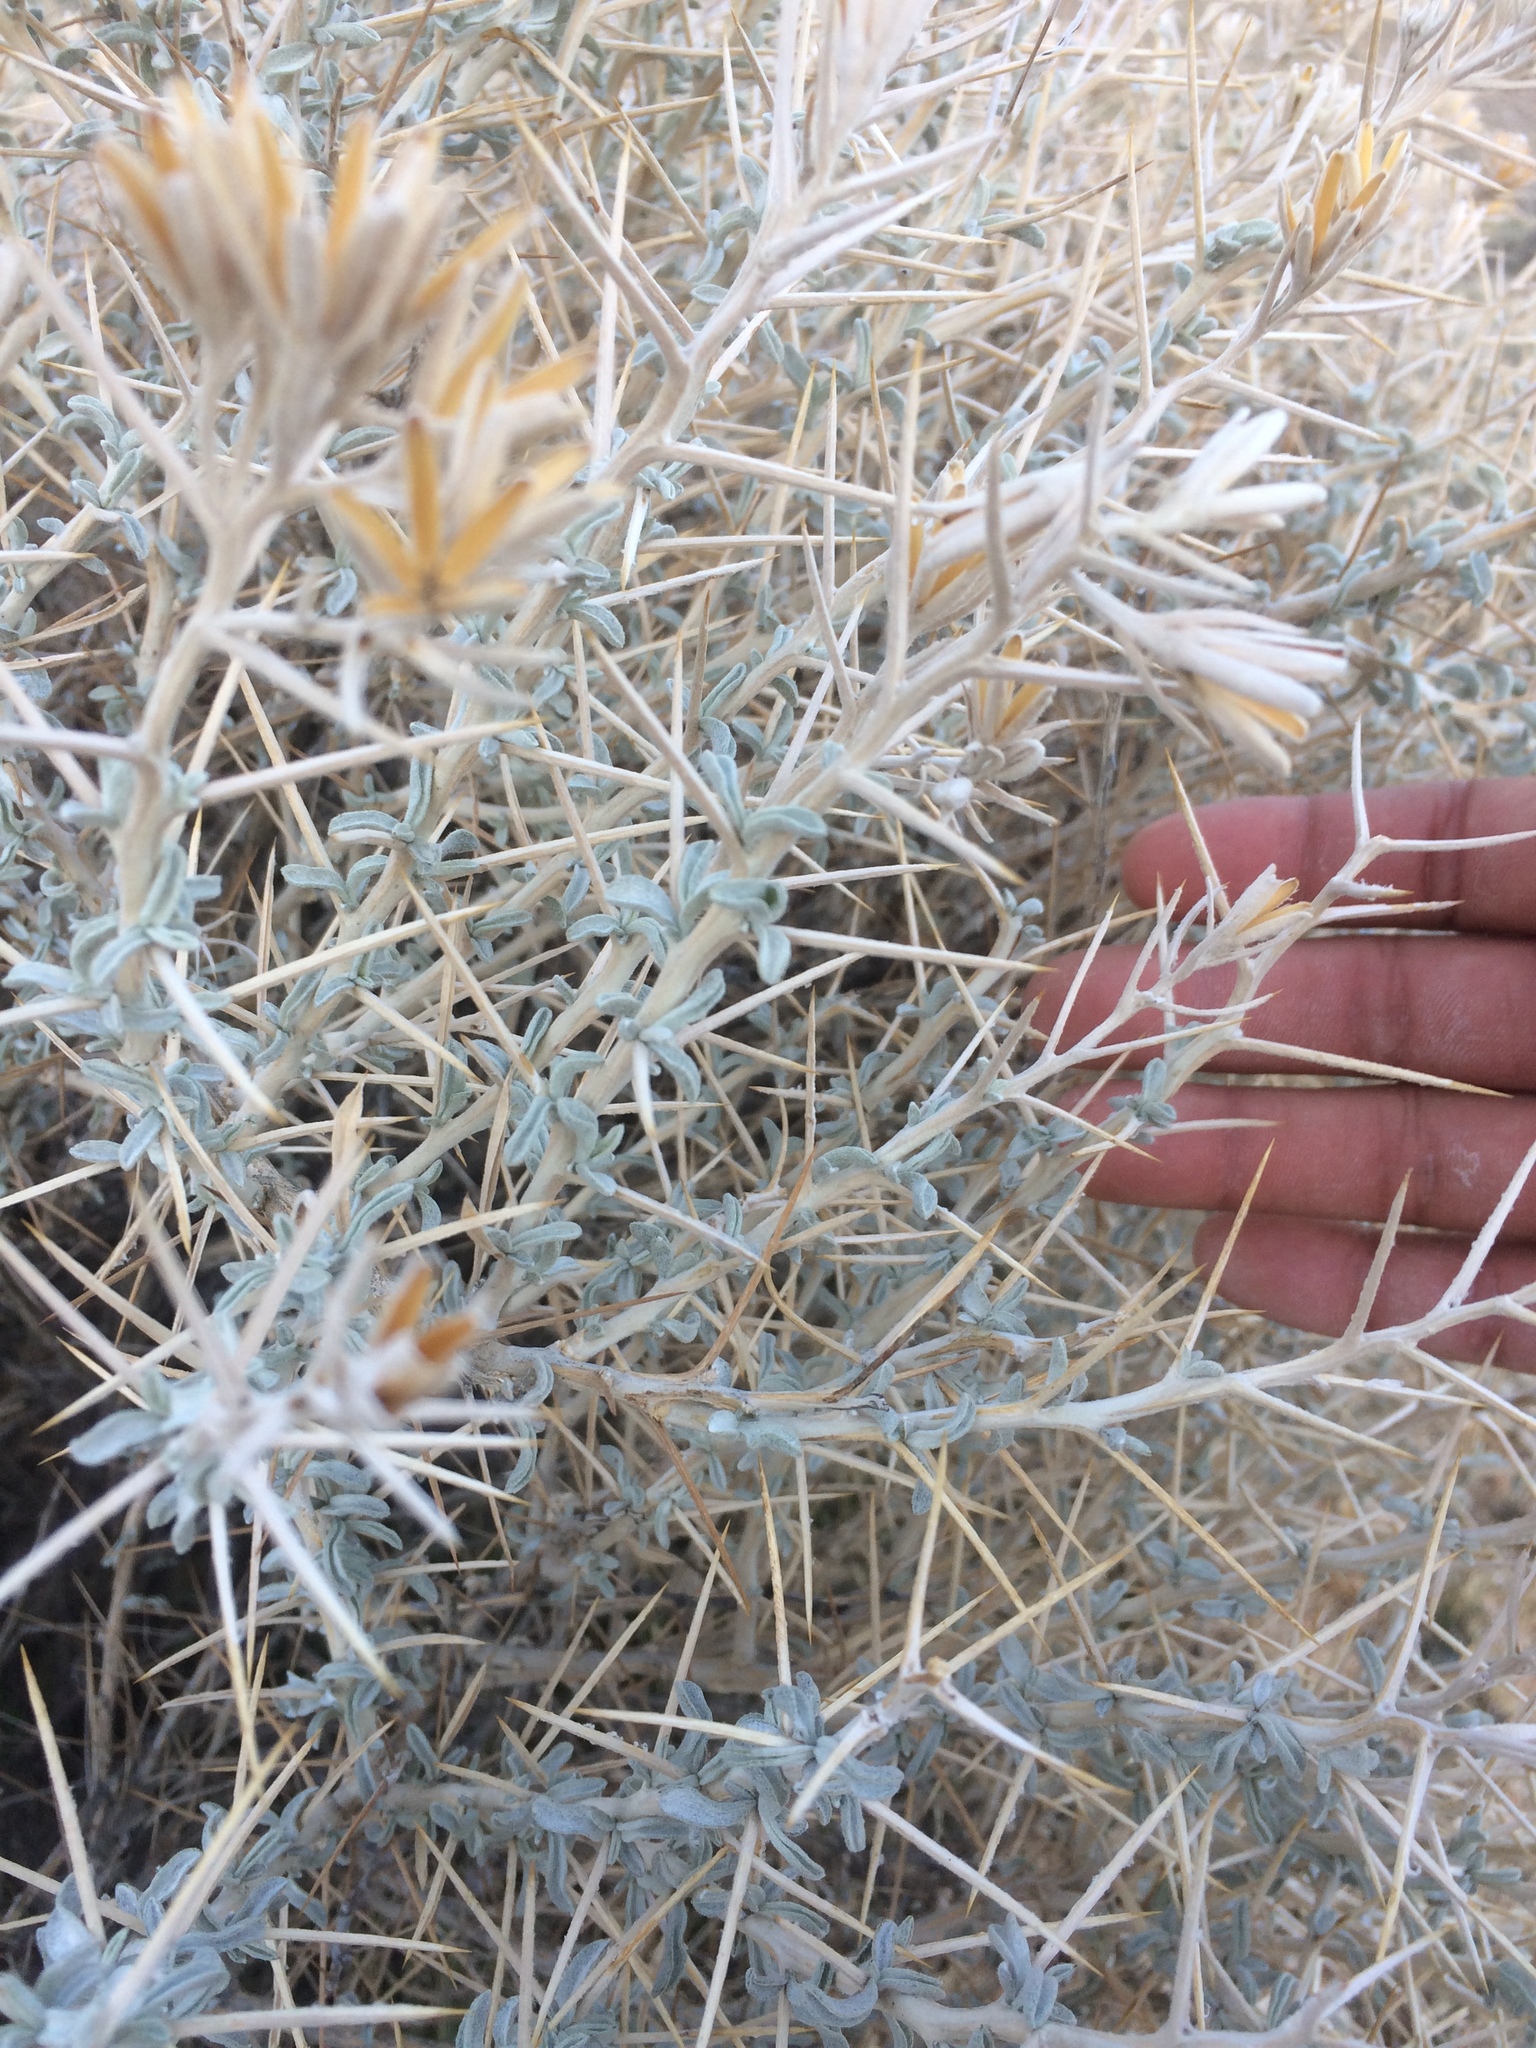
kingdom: Plantae
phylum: Tracheophyta
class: Magnoliopsida
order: Asterales
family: Asteraceae
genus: Tetradymia
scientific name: Tetradymia stenolepis
